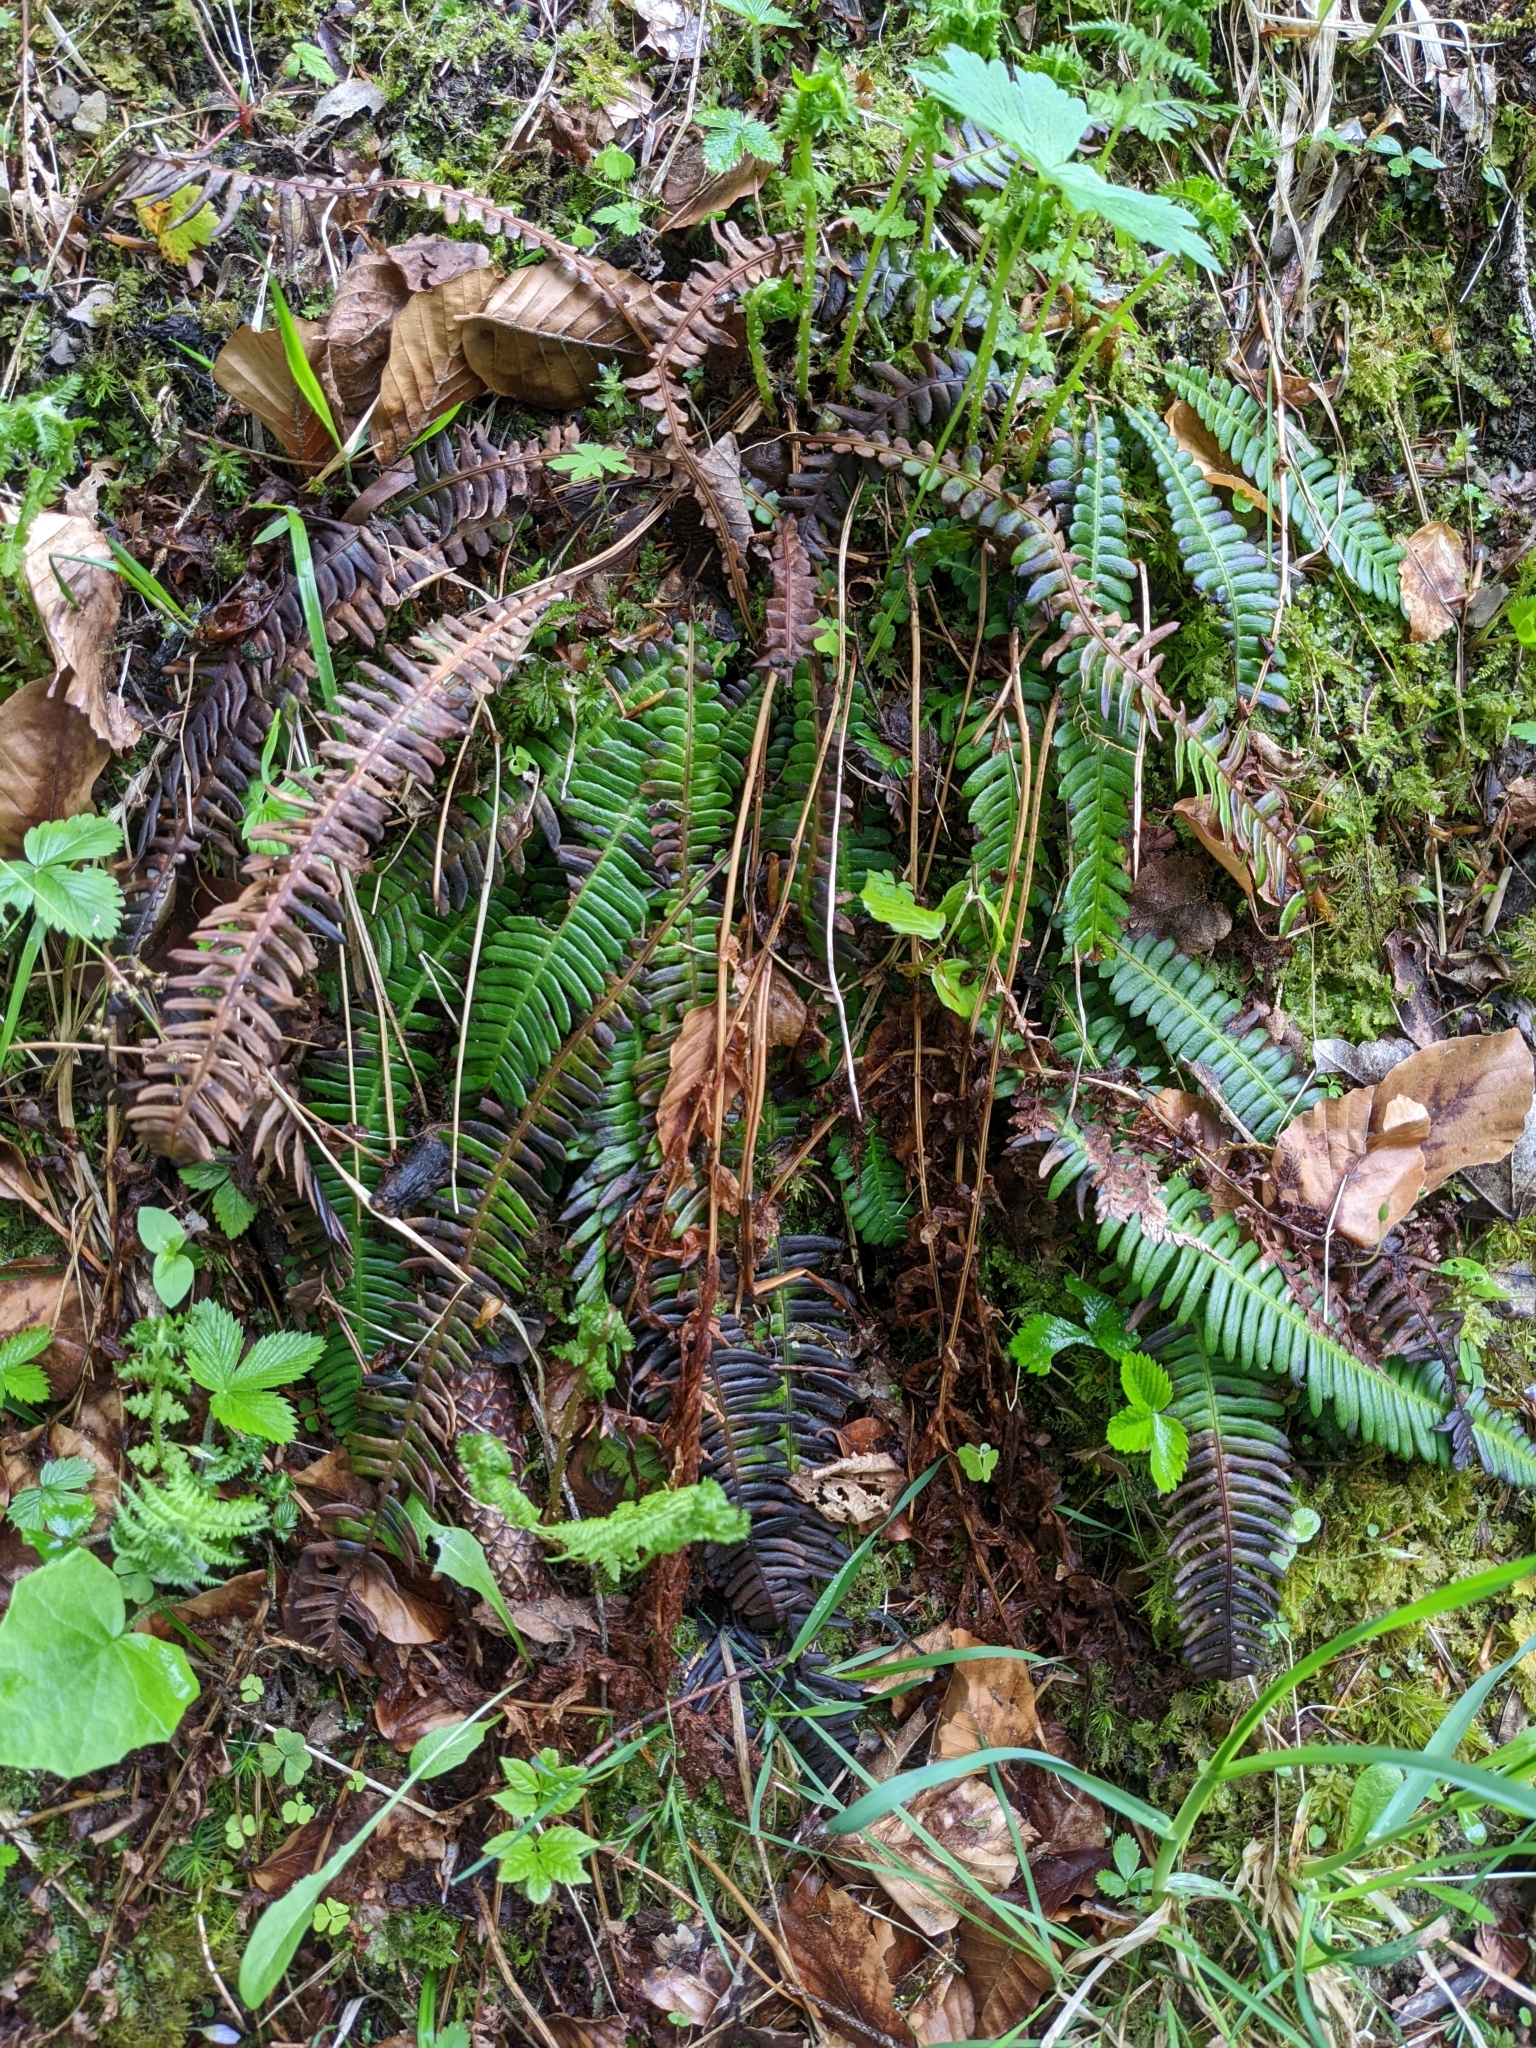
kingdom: Plantae
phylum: Tracheophyta
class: Polypodiopsida
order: Polypodiales
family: Blechnaceae
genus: Struthiopteris
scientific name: Struthiopteris spicant
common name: Deer fern
